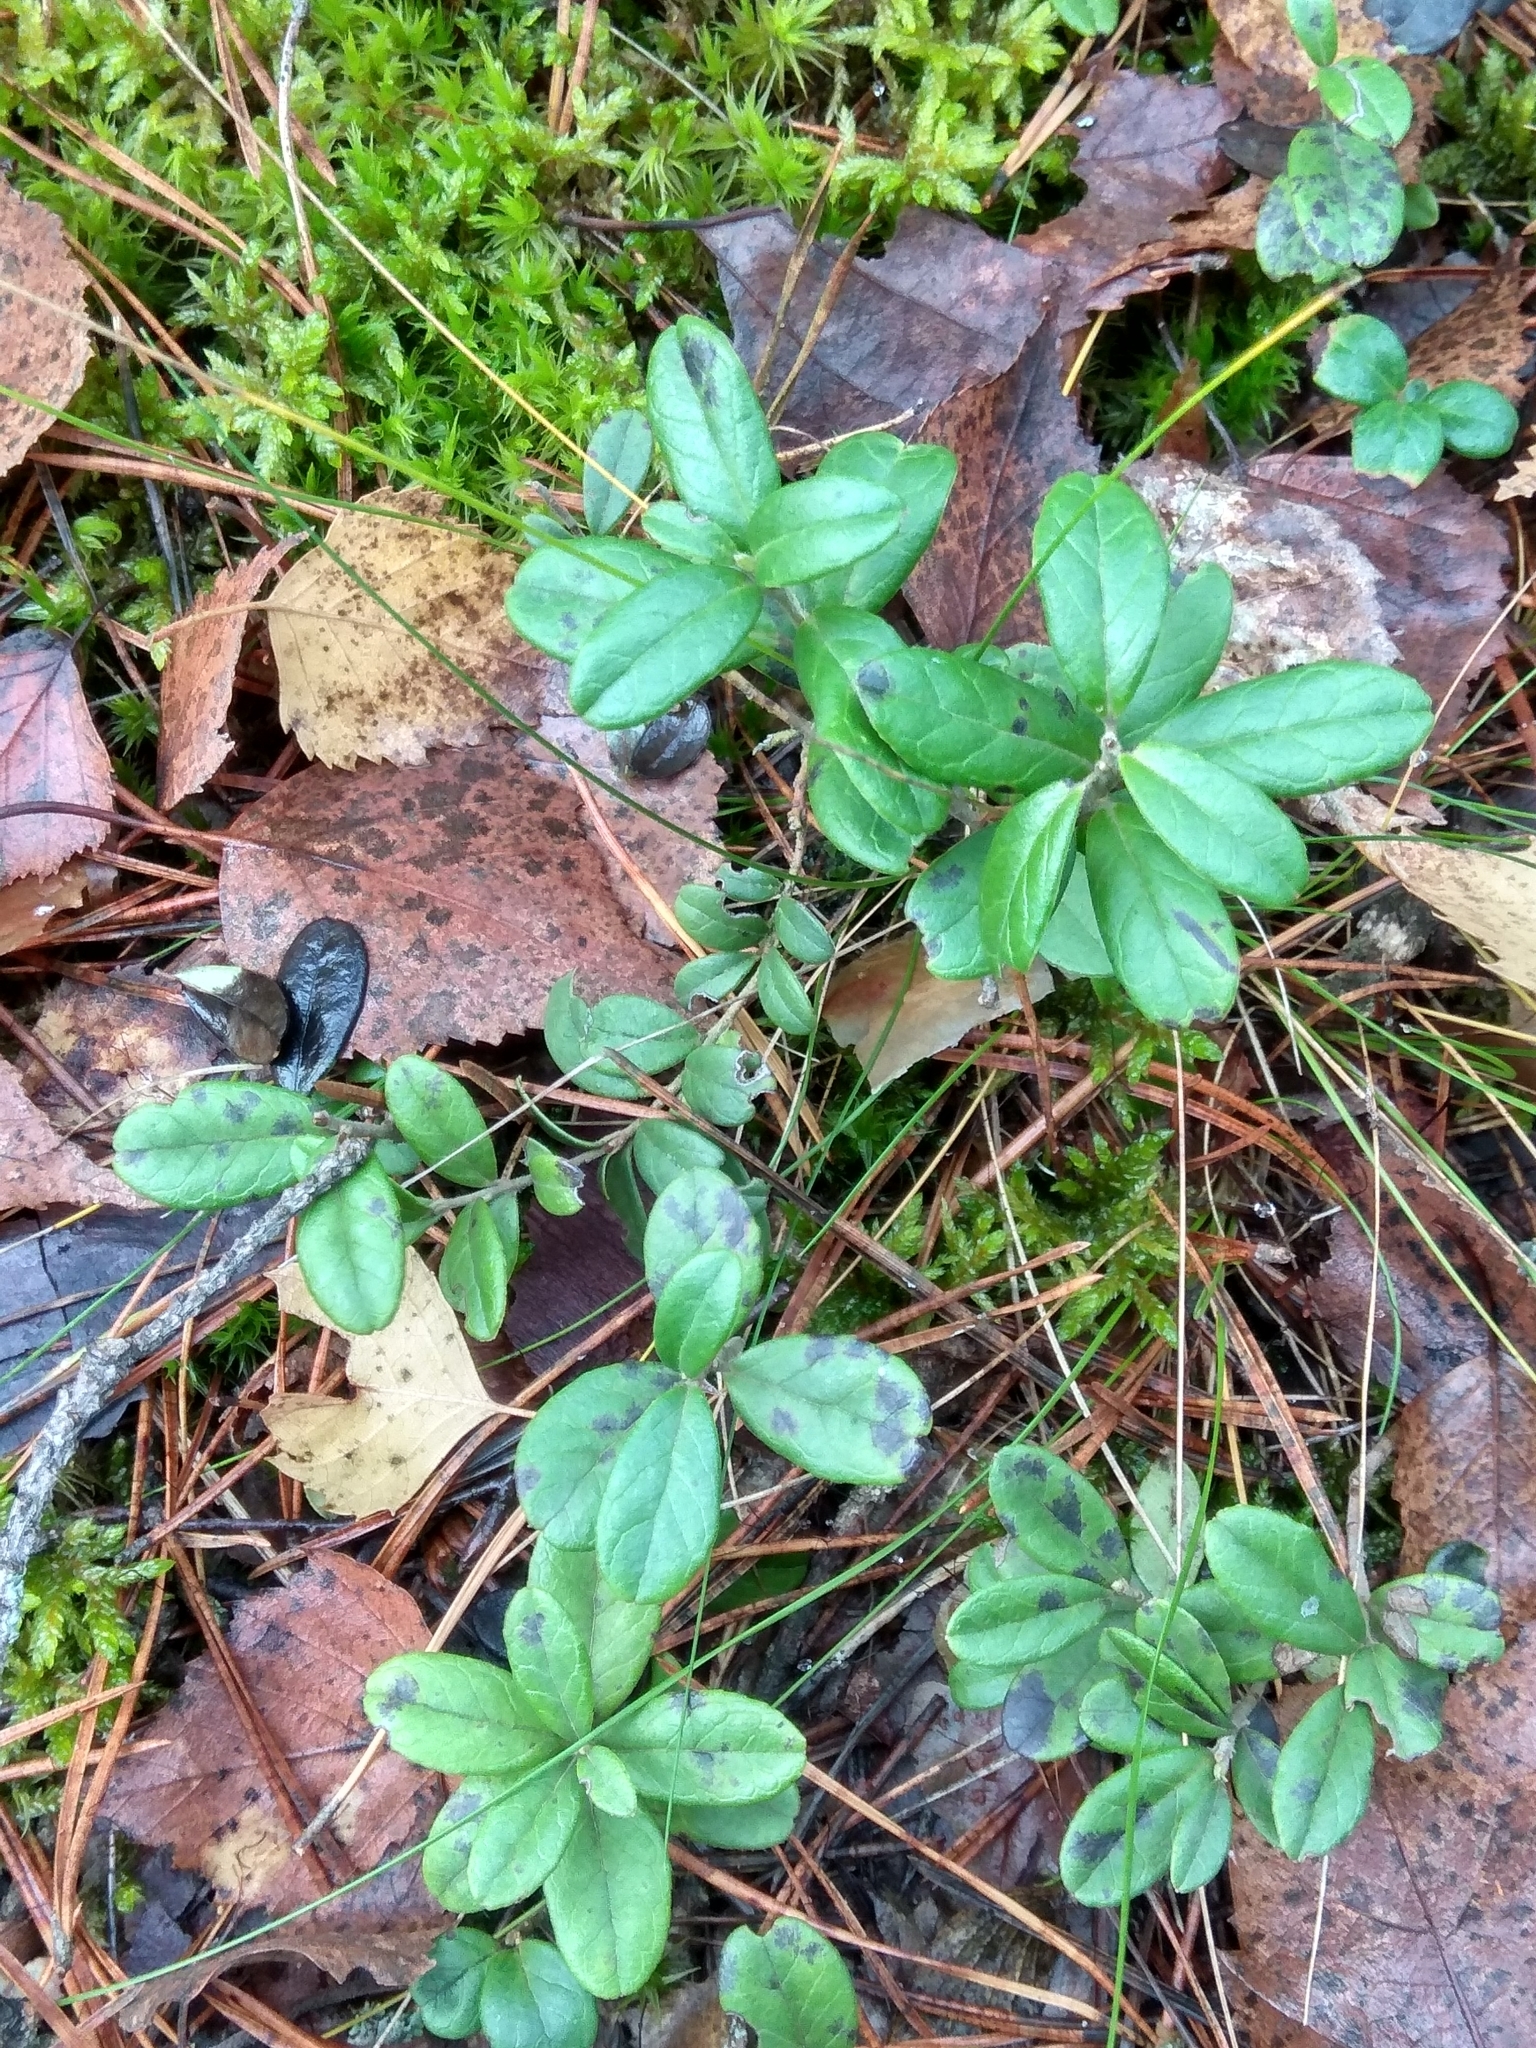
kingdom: Plantae
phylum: Tracheophyta
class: Magnoliopsida
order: Ericales
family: Ericaceae
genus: Vaccinium
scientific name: Vaccinium vitis-idaea
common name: Cowberry
